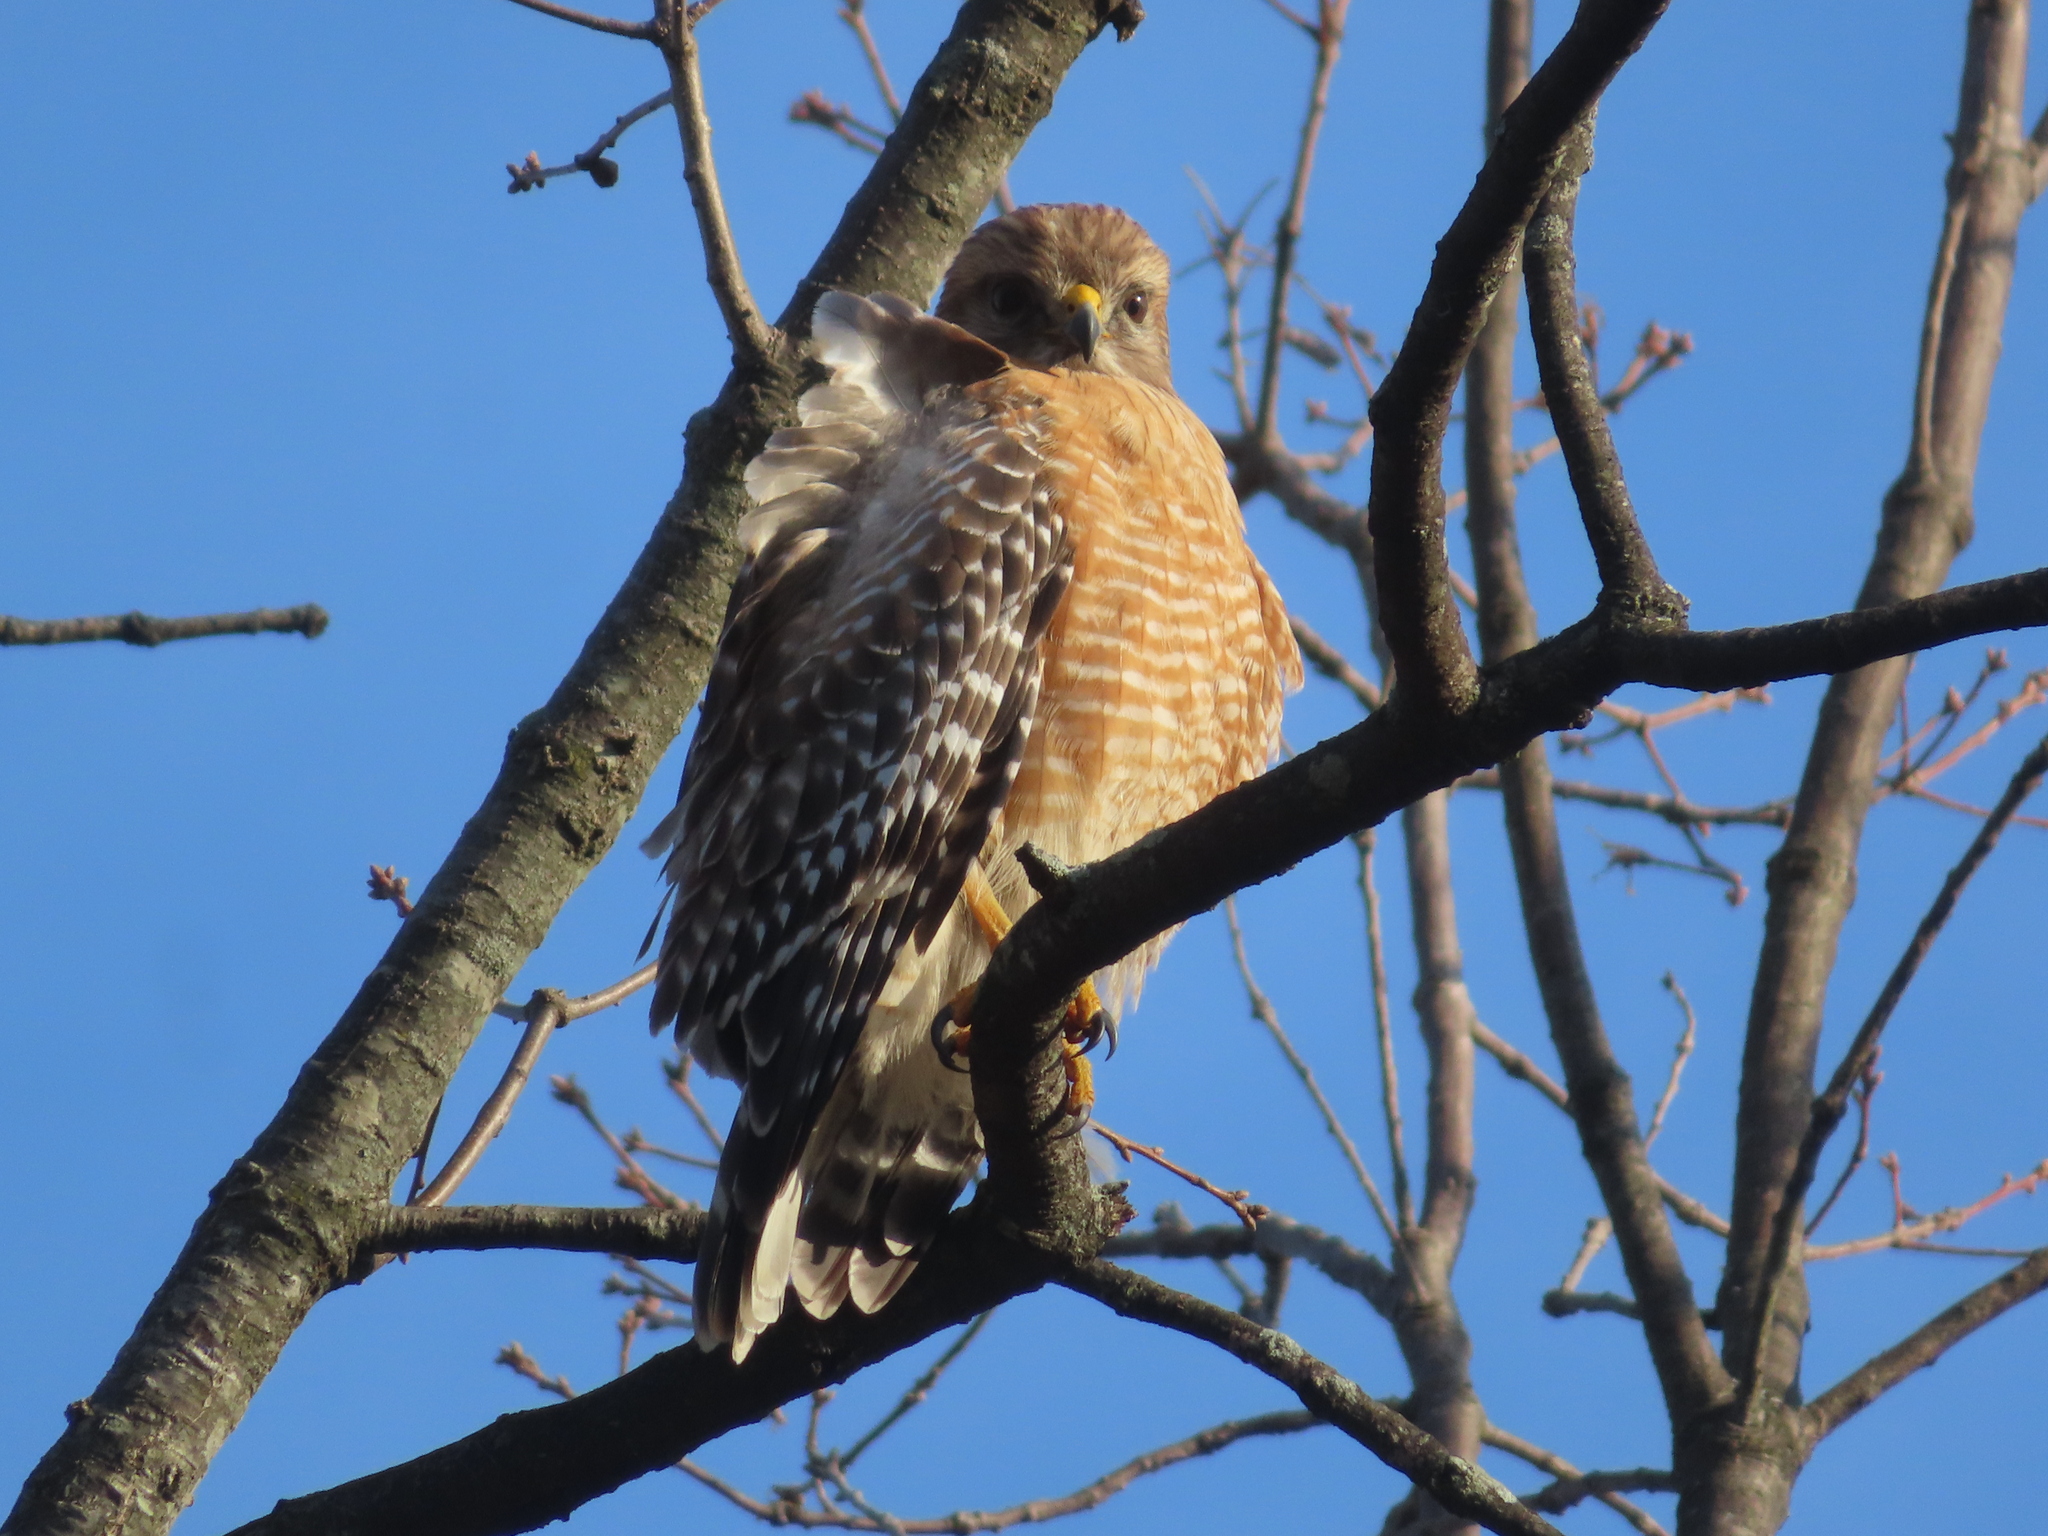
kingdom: Animalia
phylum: Chordata
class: Aves
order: Accipitriformes
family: Accipitridae
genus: Buteo
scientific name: Buteo lineatus
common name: Red-shouldered hawk
